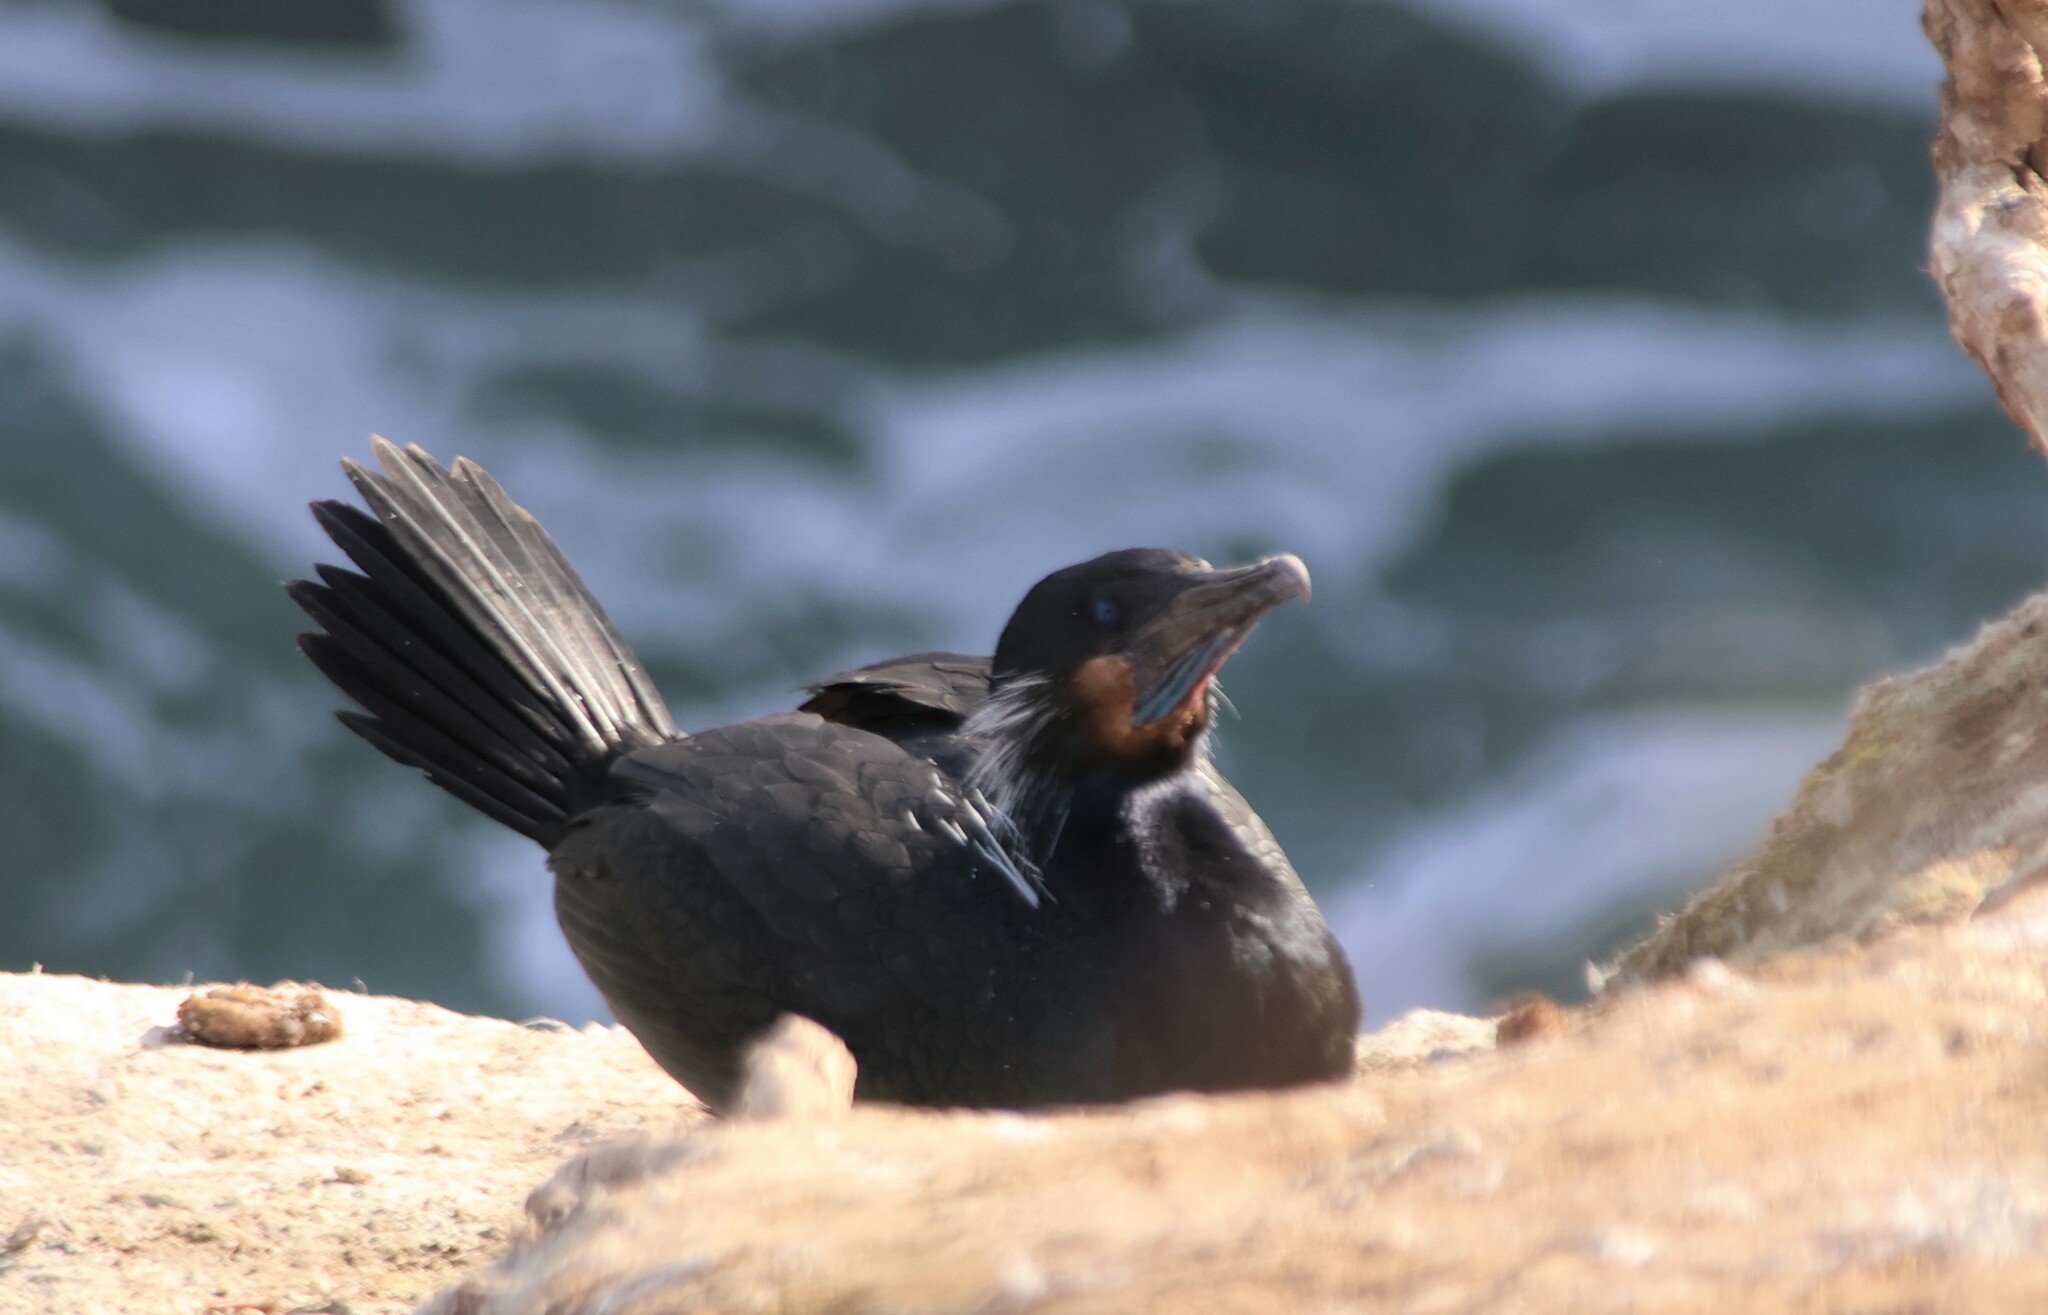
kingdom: Animalia
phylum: Chordata
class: Aves
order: Suliformes
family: Phalacrocoracidae
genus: Urile
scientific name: Urile penicillatus
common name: Brandt's cormorant
